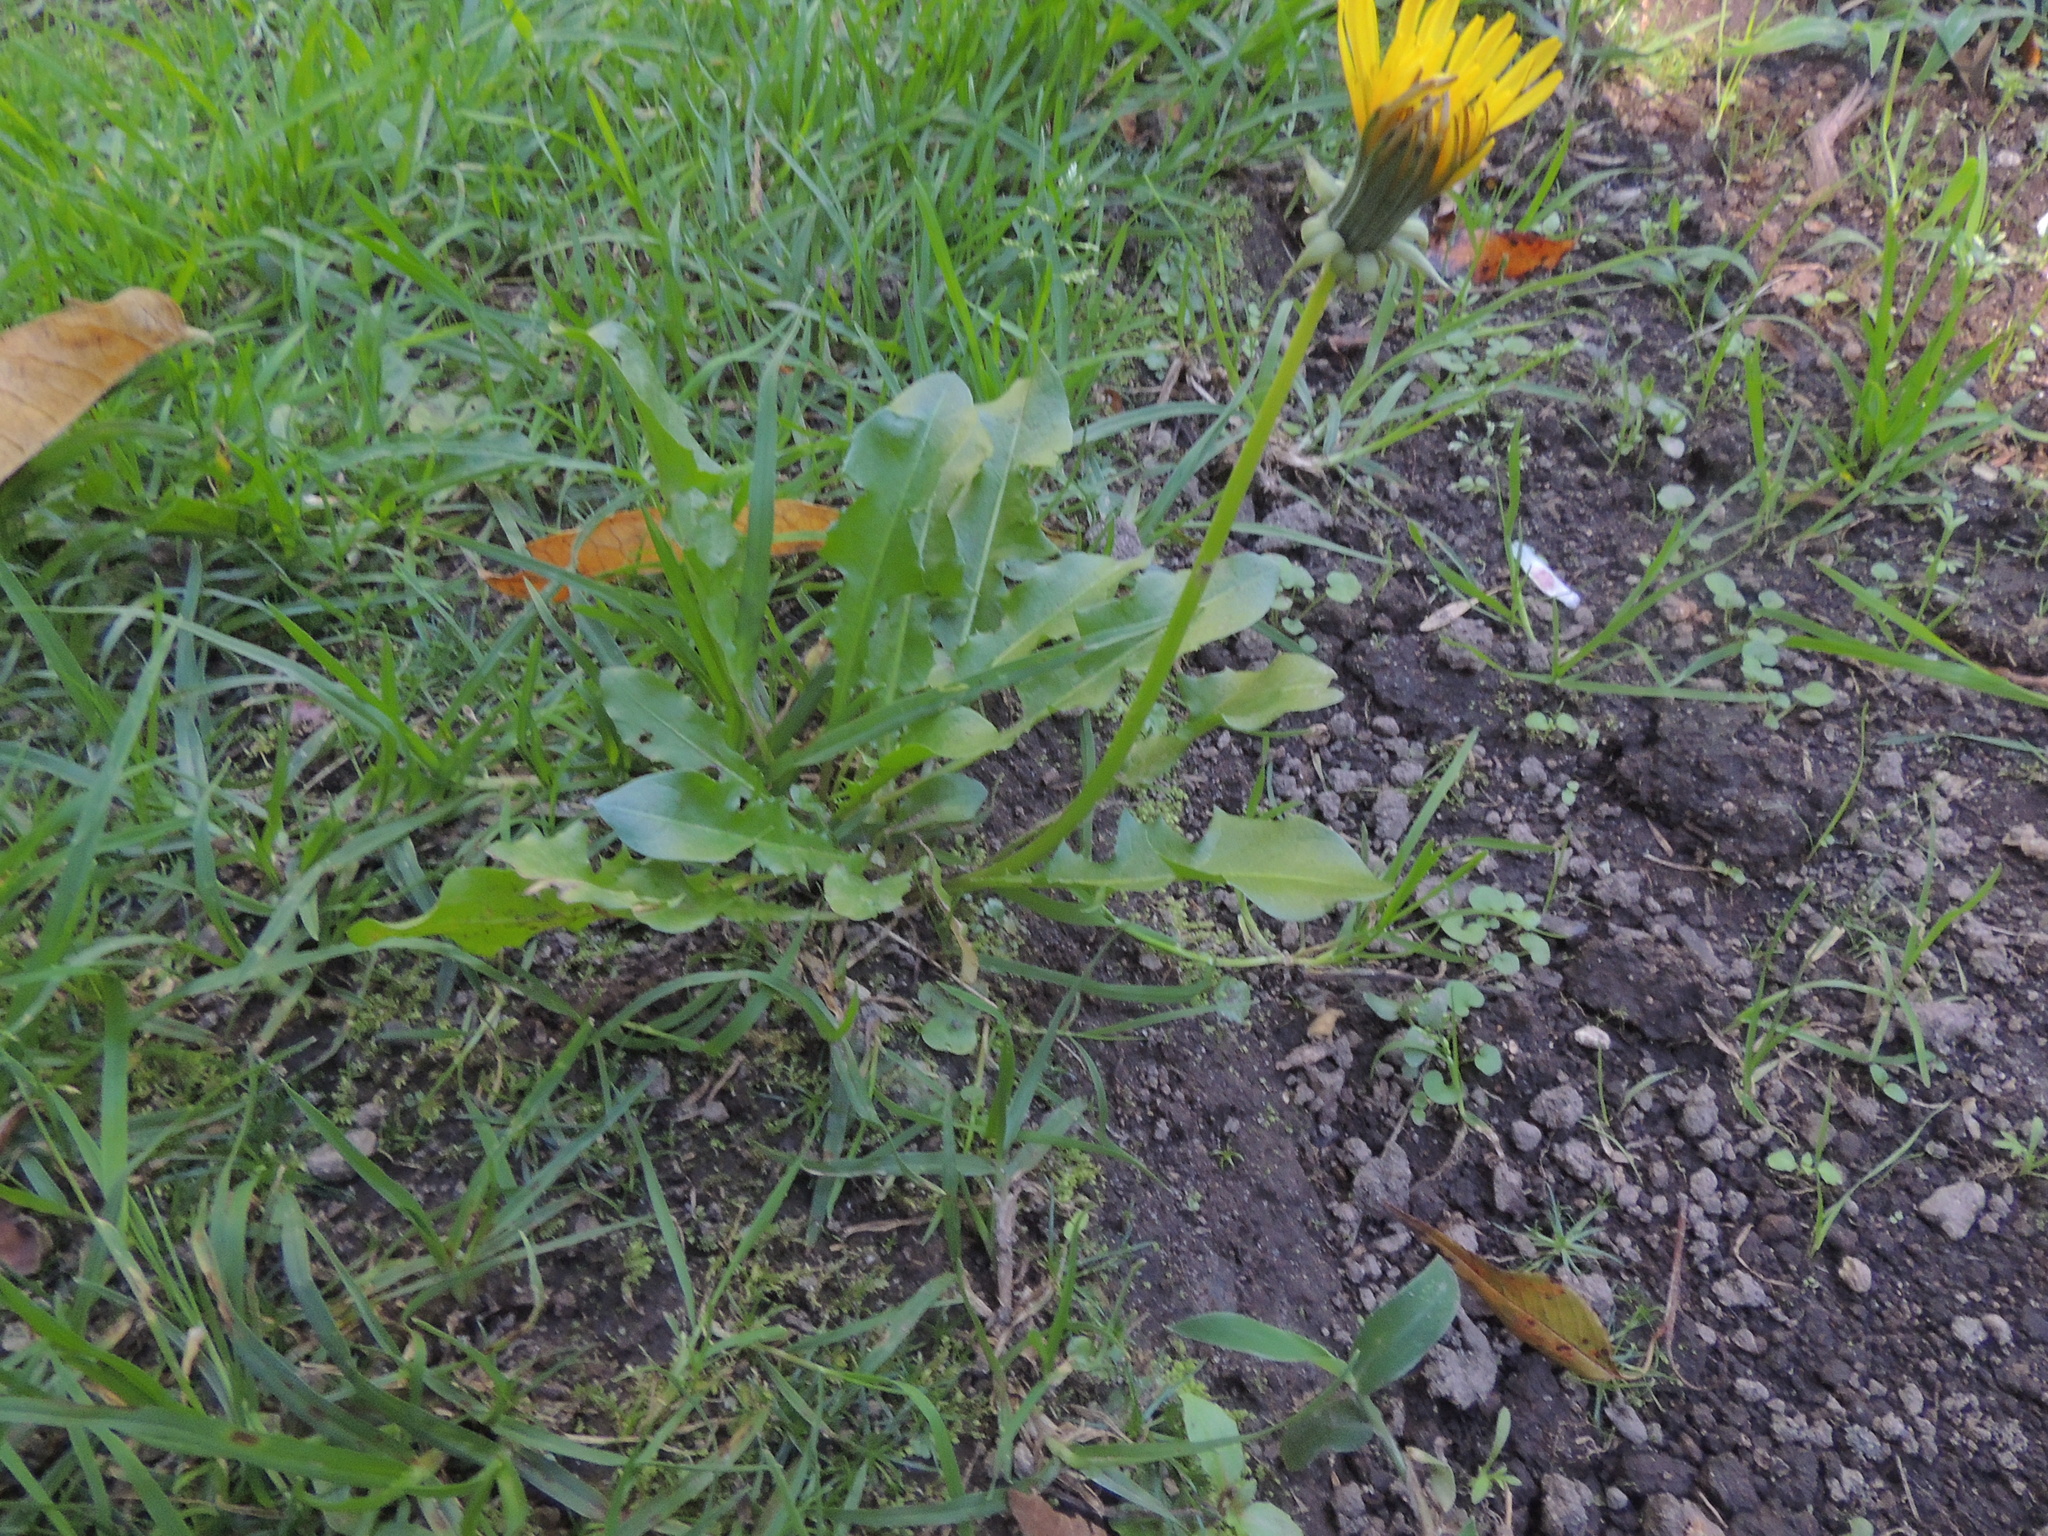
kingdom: Plantae
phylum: Tracheophyta
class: Magnoliopsida
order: Asterales
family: Asteraceae
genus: Taraxacum
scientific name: Taraxacum officinale
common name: Common dandelion
